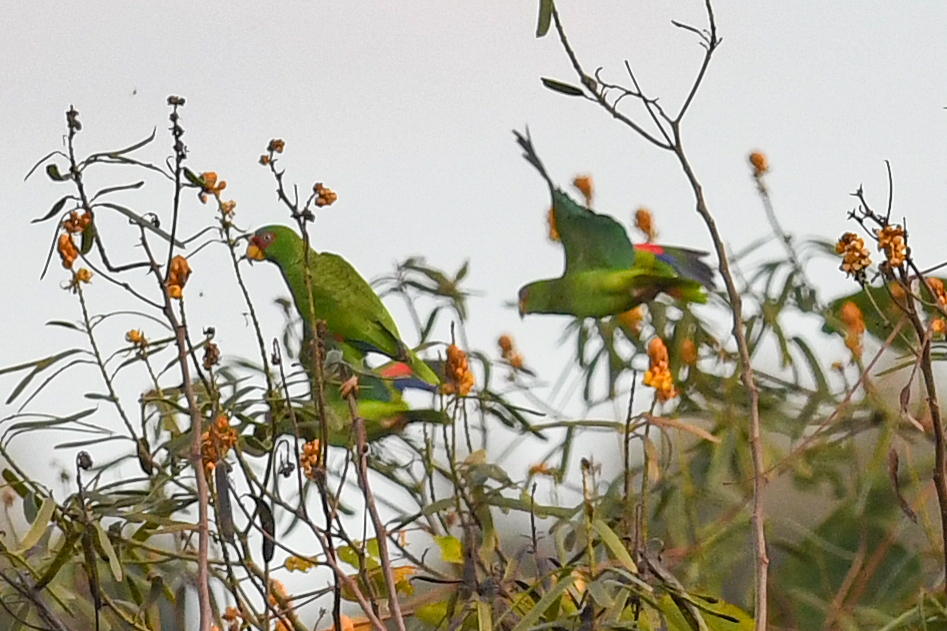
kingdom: Animalia
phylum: Chordata
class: Aves
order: Psittaciformes
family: Psittacidae
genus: Amazona
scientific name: Amazona albifrons
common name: White-fronted amazon
